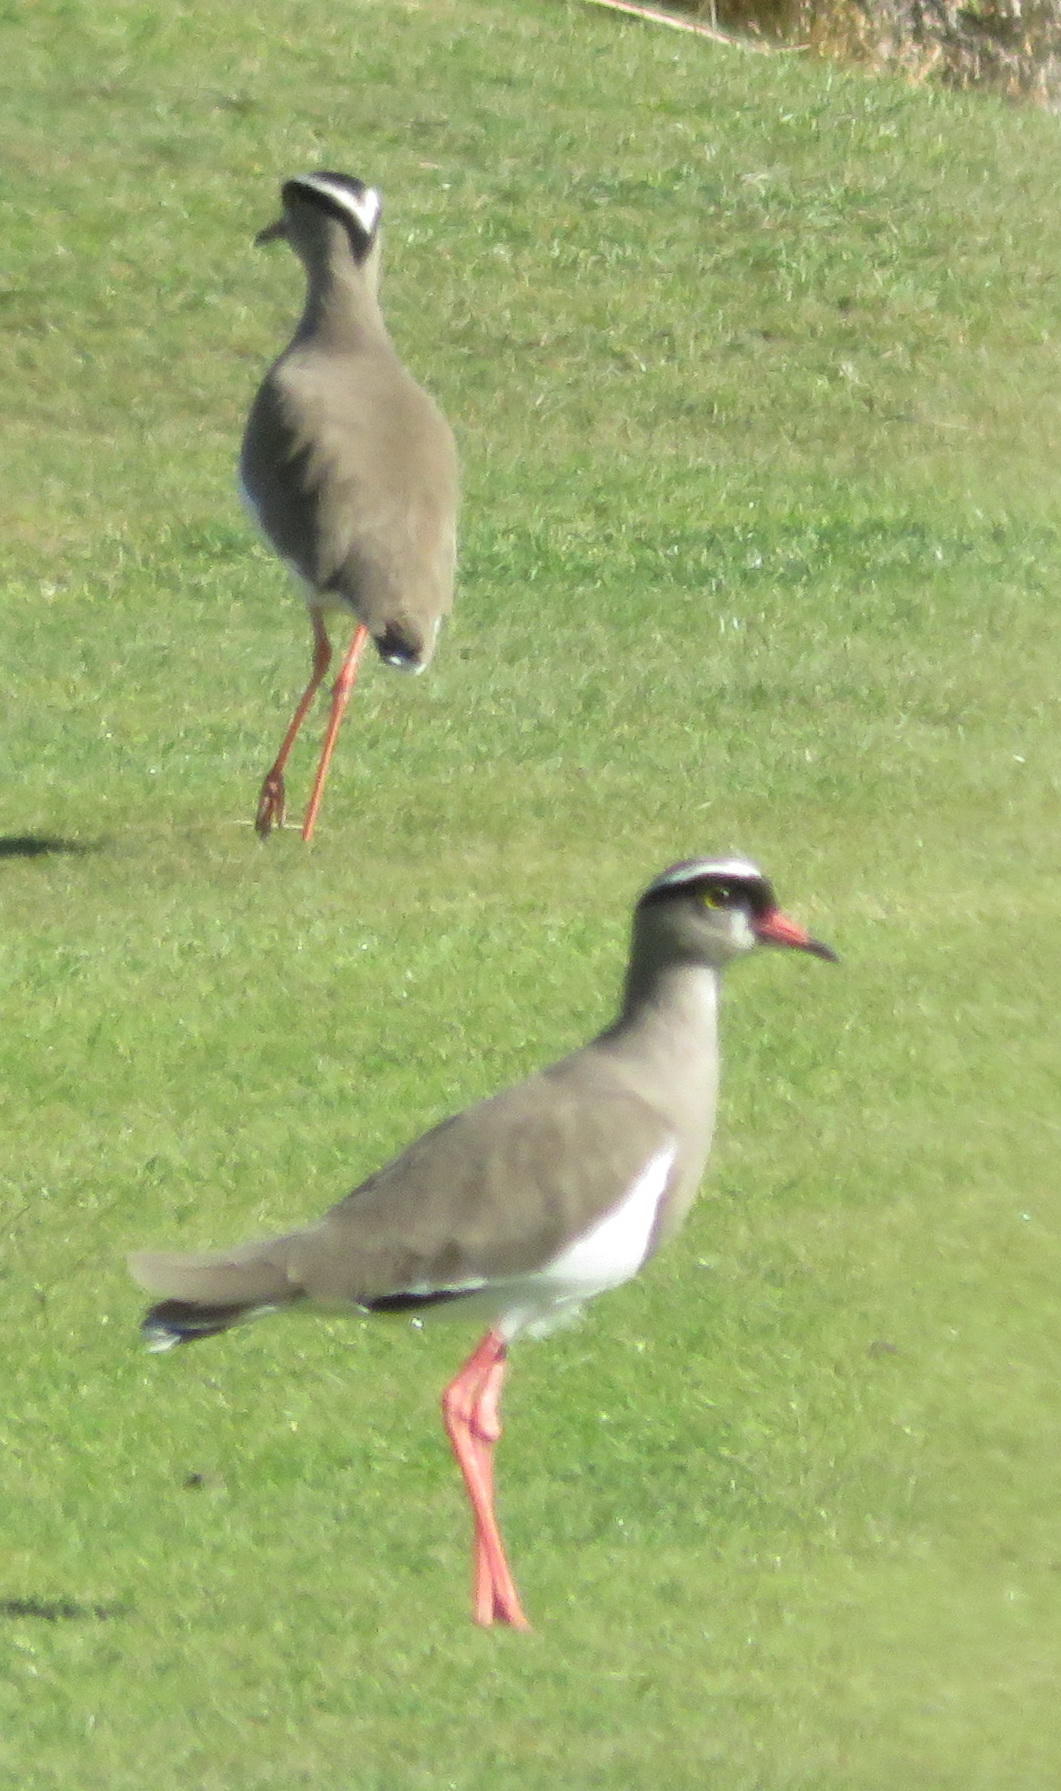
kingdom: Animalia
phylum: Chordata
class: Aves
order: Charadriiformes
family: Charadriidae
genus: Vanellus
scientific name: Vanellus coronatus
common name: Crowned lapwing
